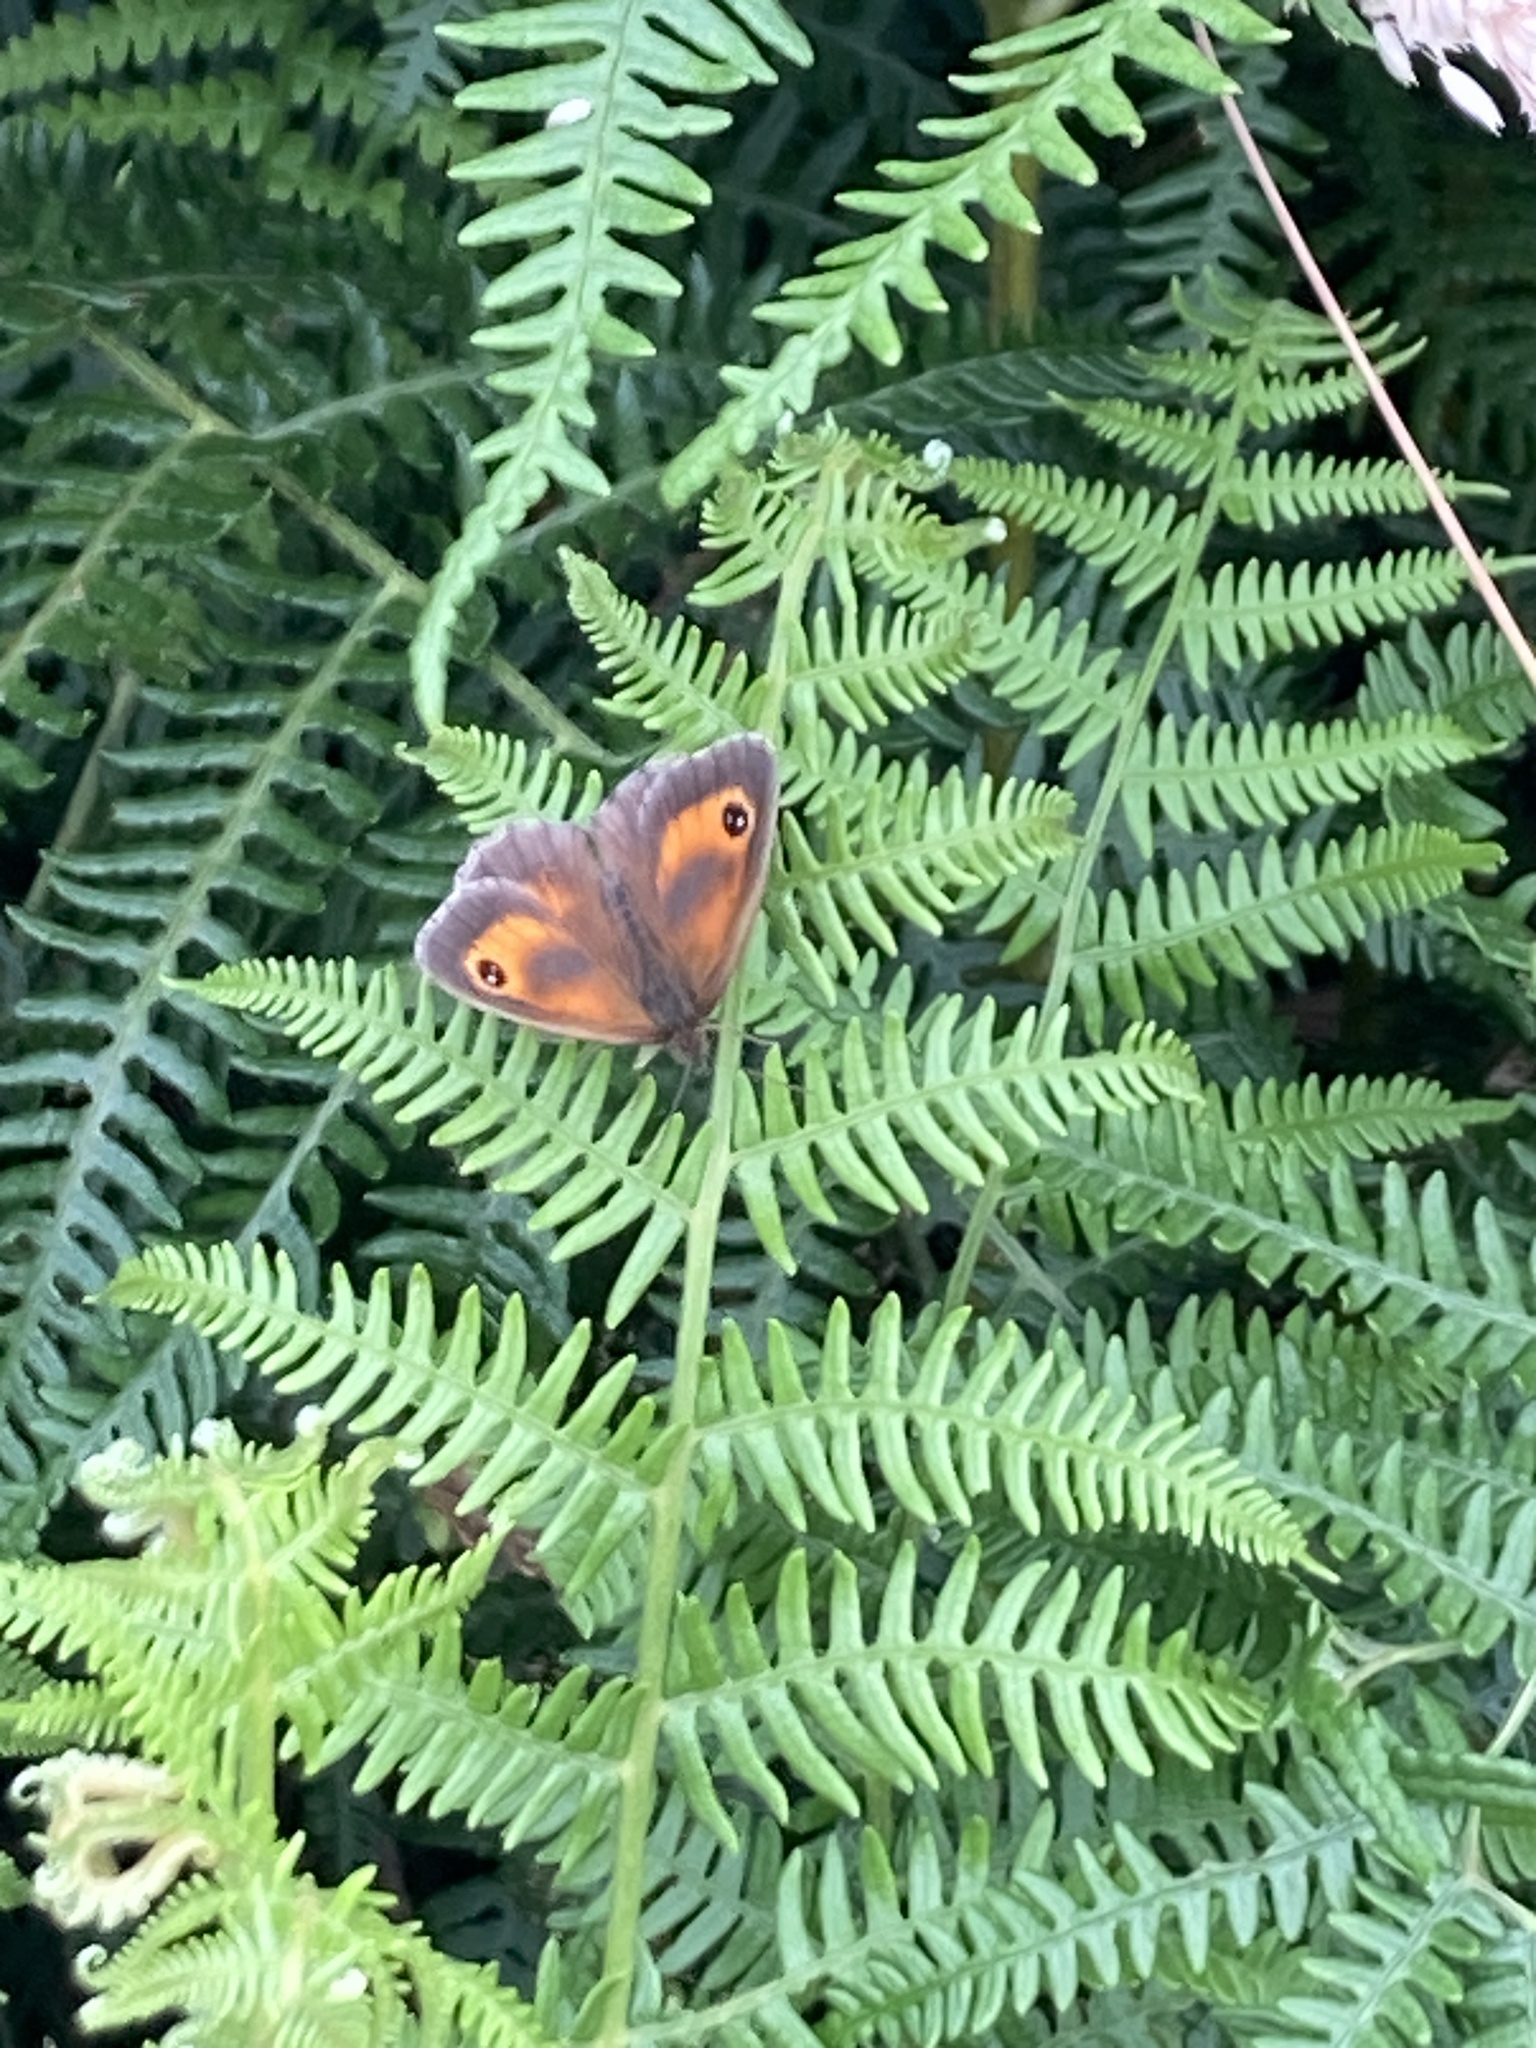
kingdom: Animalia
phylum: Arthropoda
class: Insecta
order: Lepidoptera
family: Nymphalidae
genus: Pyronia
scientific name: Pyronia tithonus
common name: Gatekeeper
